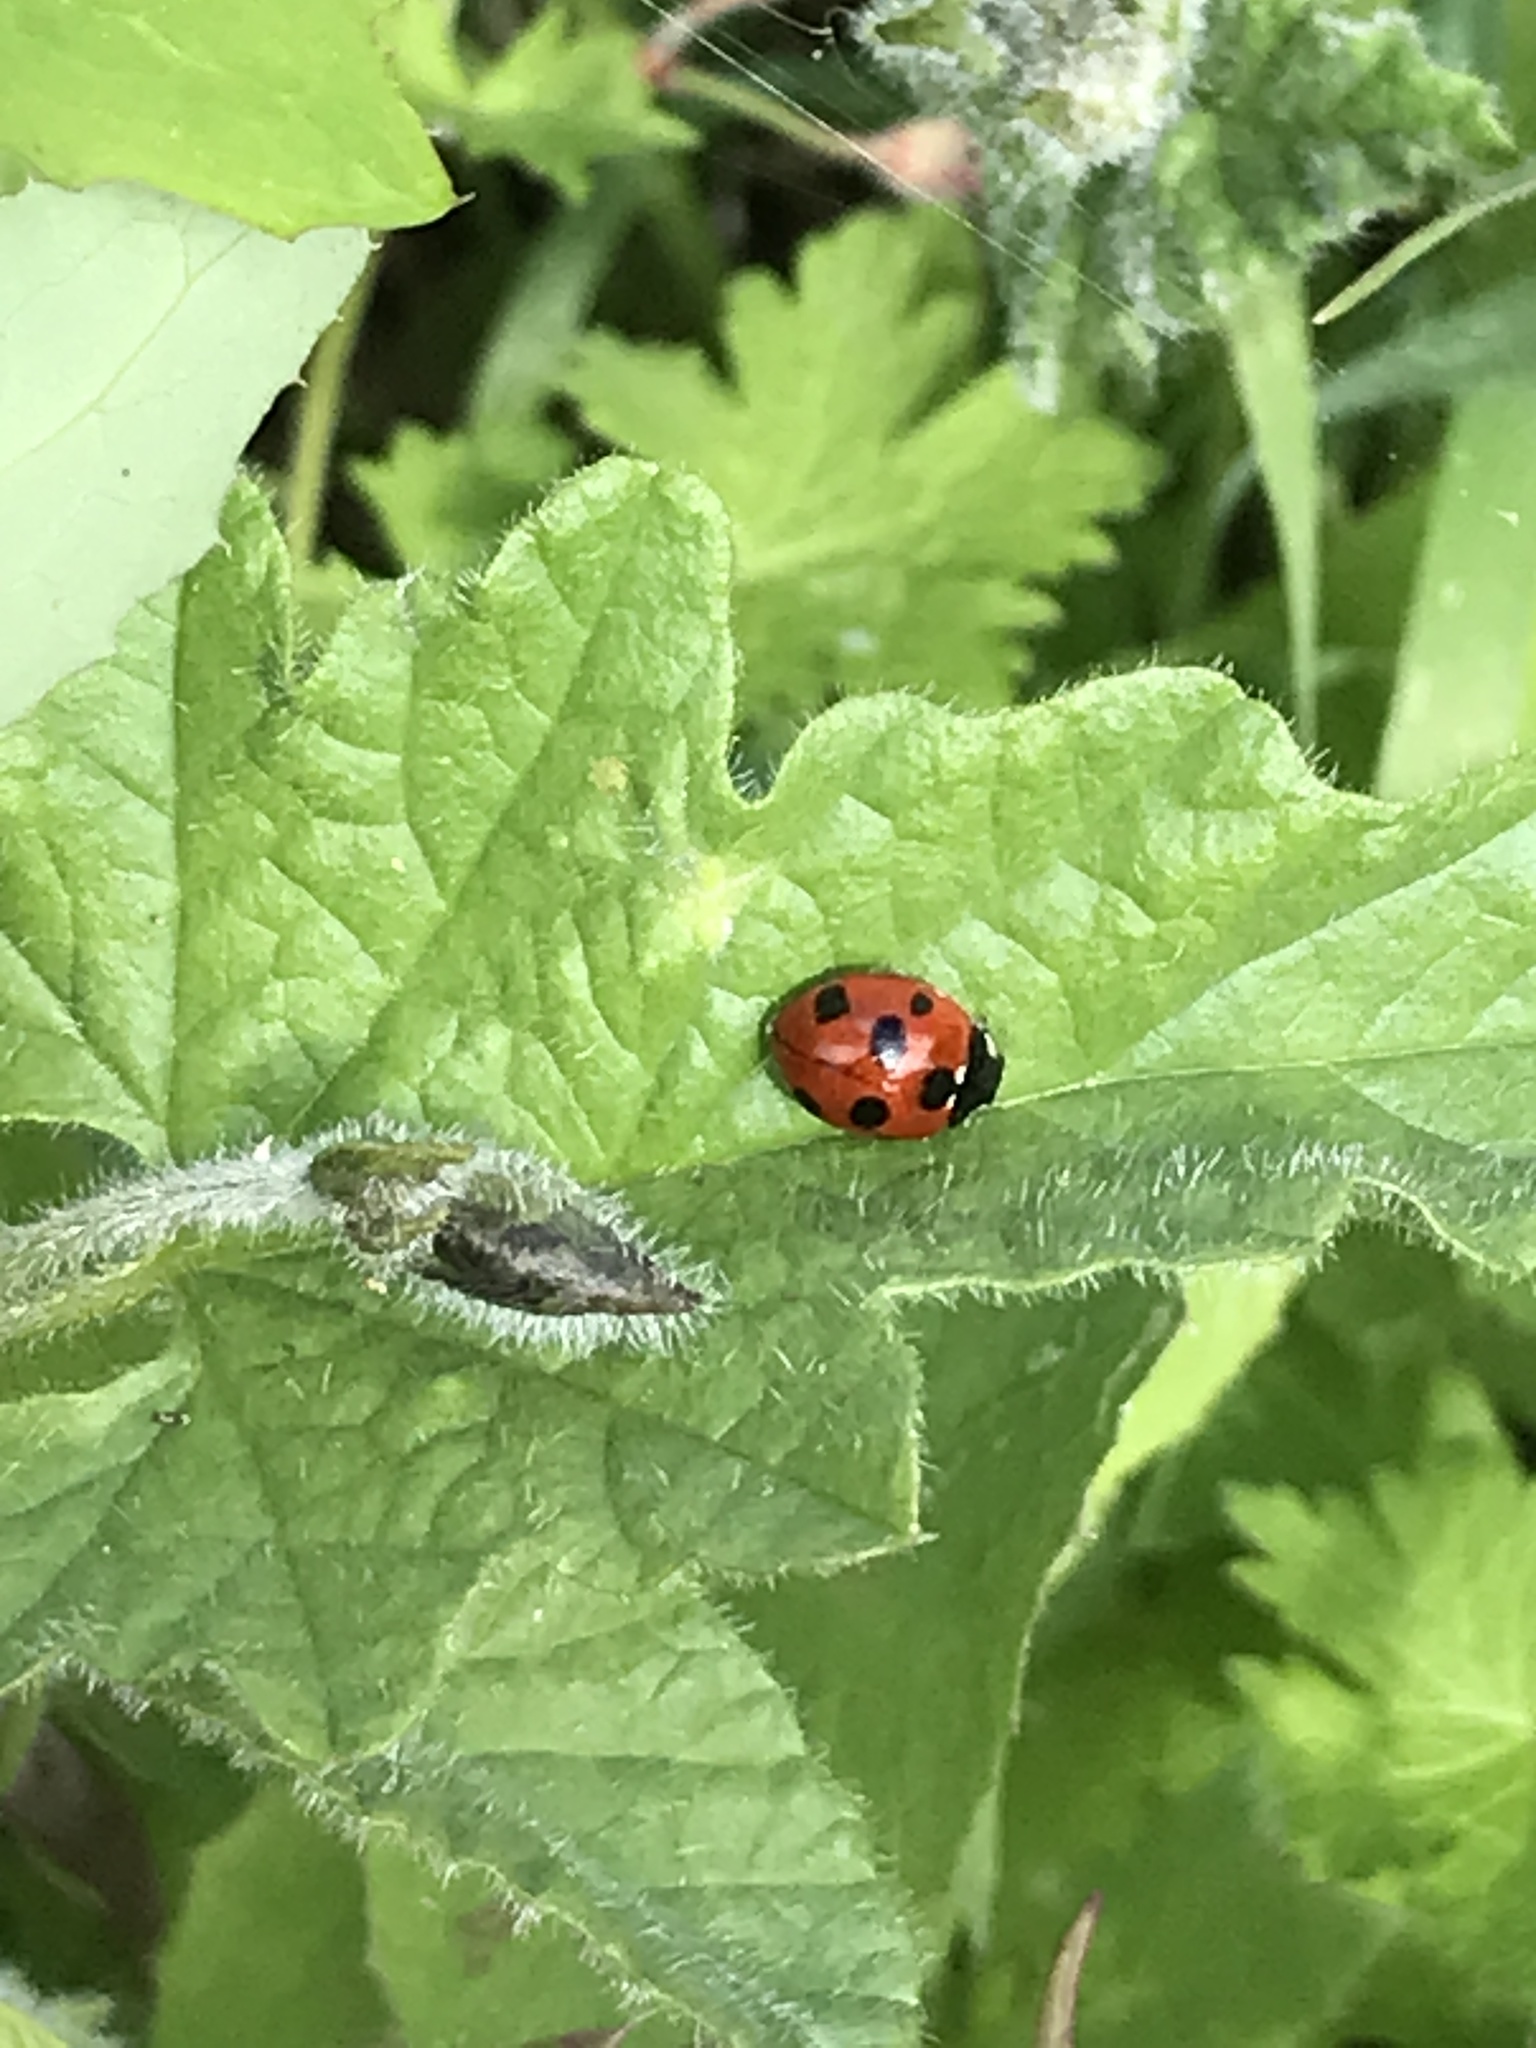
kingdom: Animalia
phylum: Arthropoda
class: Insecta
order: Coleoptera
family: Coccinellidae
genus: Coccinella
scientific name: Coccinella algerica
